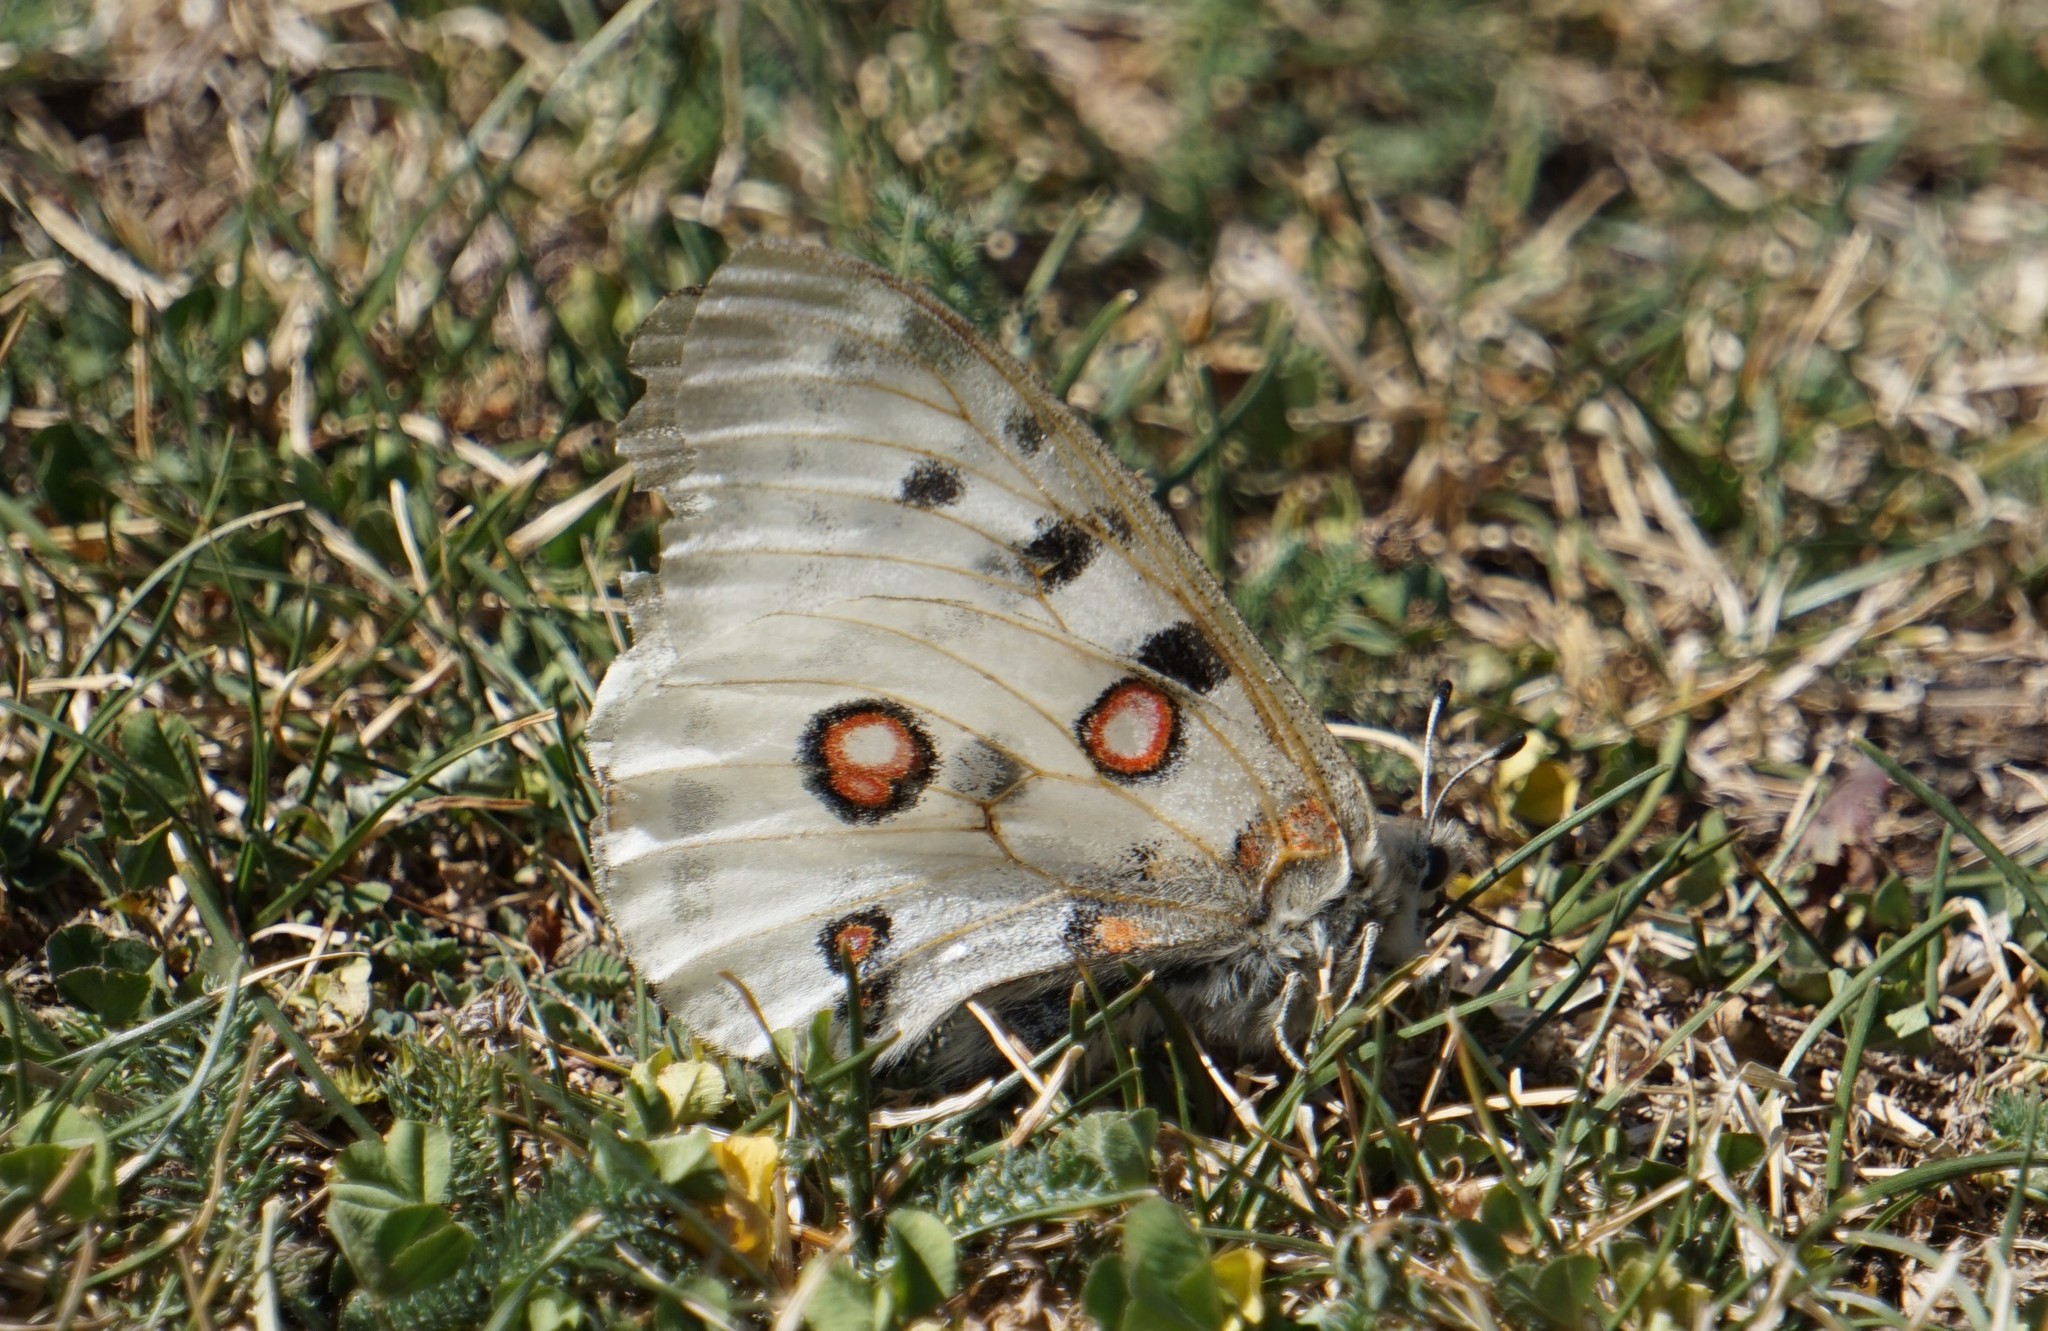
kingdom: Animalia
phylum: Arthropoda
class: Insecta
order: Lepidoptera
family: Papilionidae
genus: Parnassius
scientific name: Parnassius apollo
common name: Apollo
